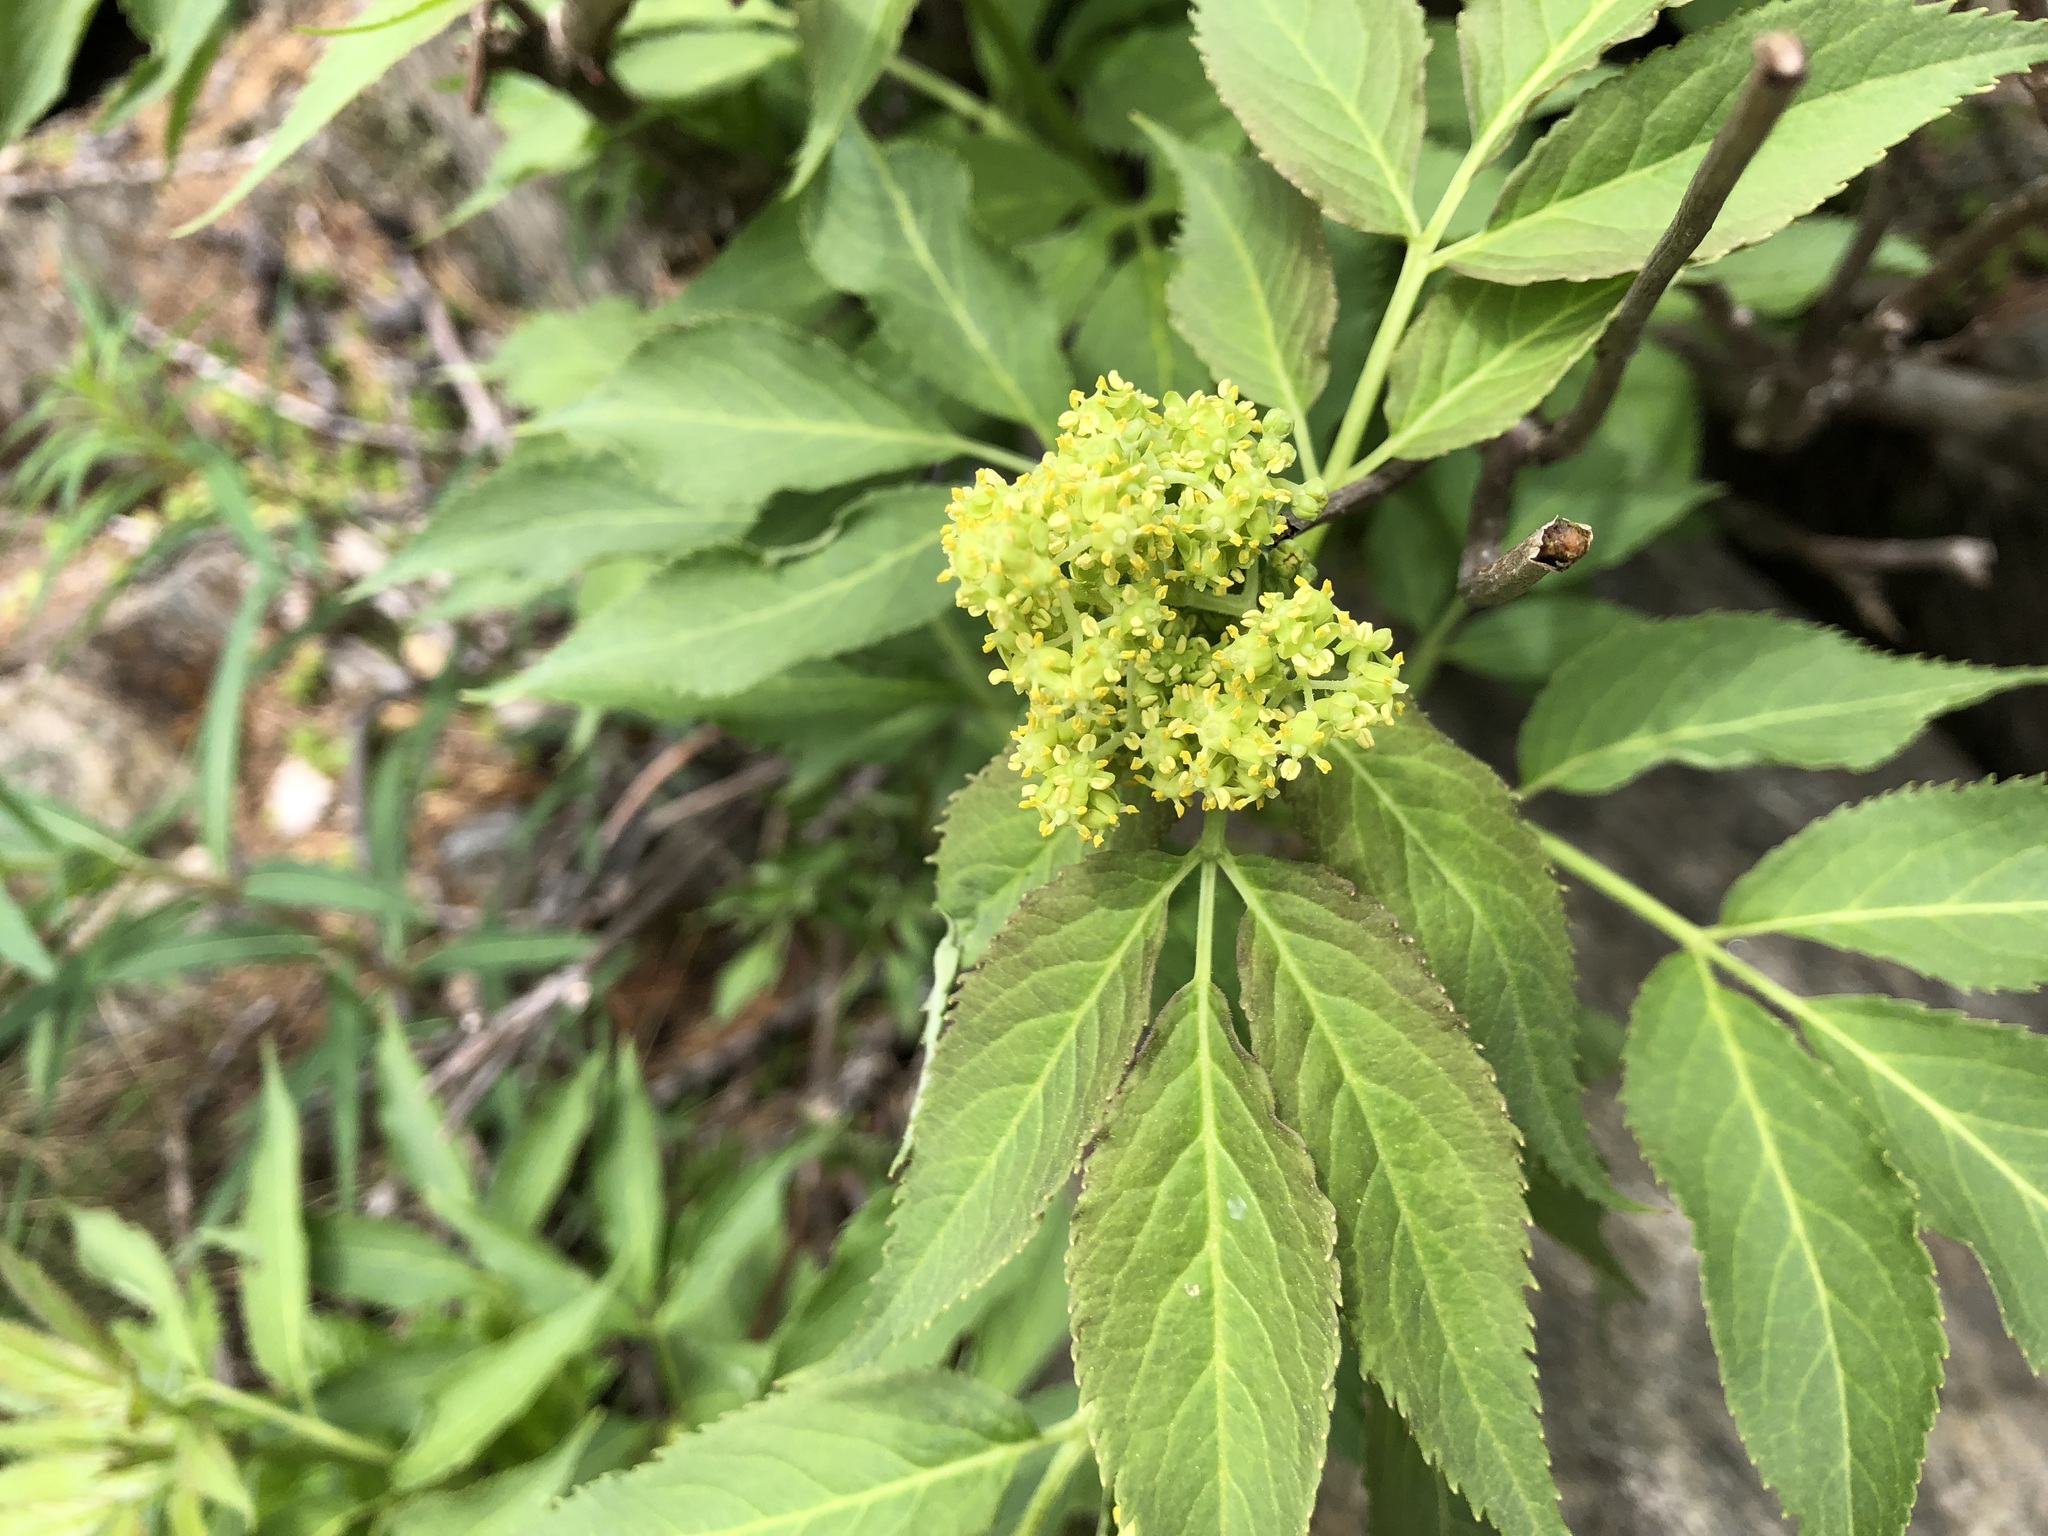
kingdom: Plantae
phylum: Tracheophyta
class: Magnoliopsida
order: Dipsacales
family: Viburnaceae
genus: Sambucus
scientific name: Sambucus racemosa
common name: Red-berried elder
